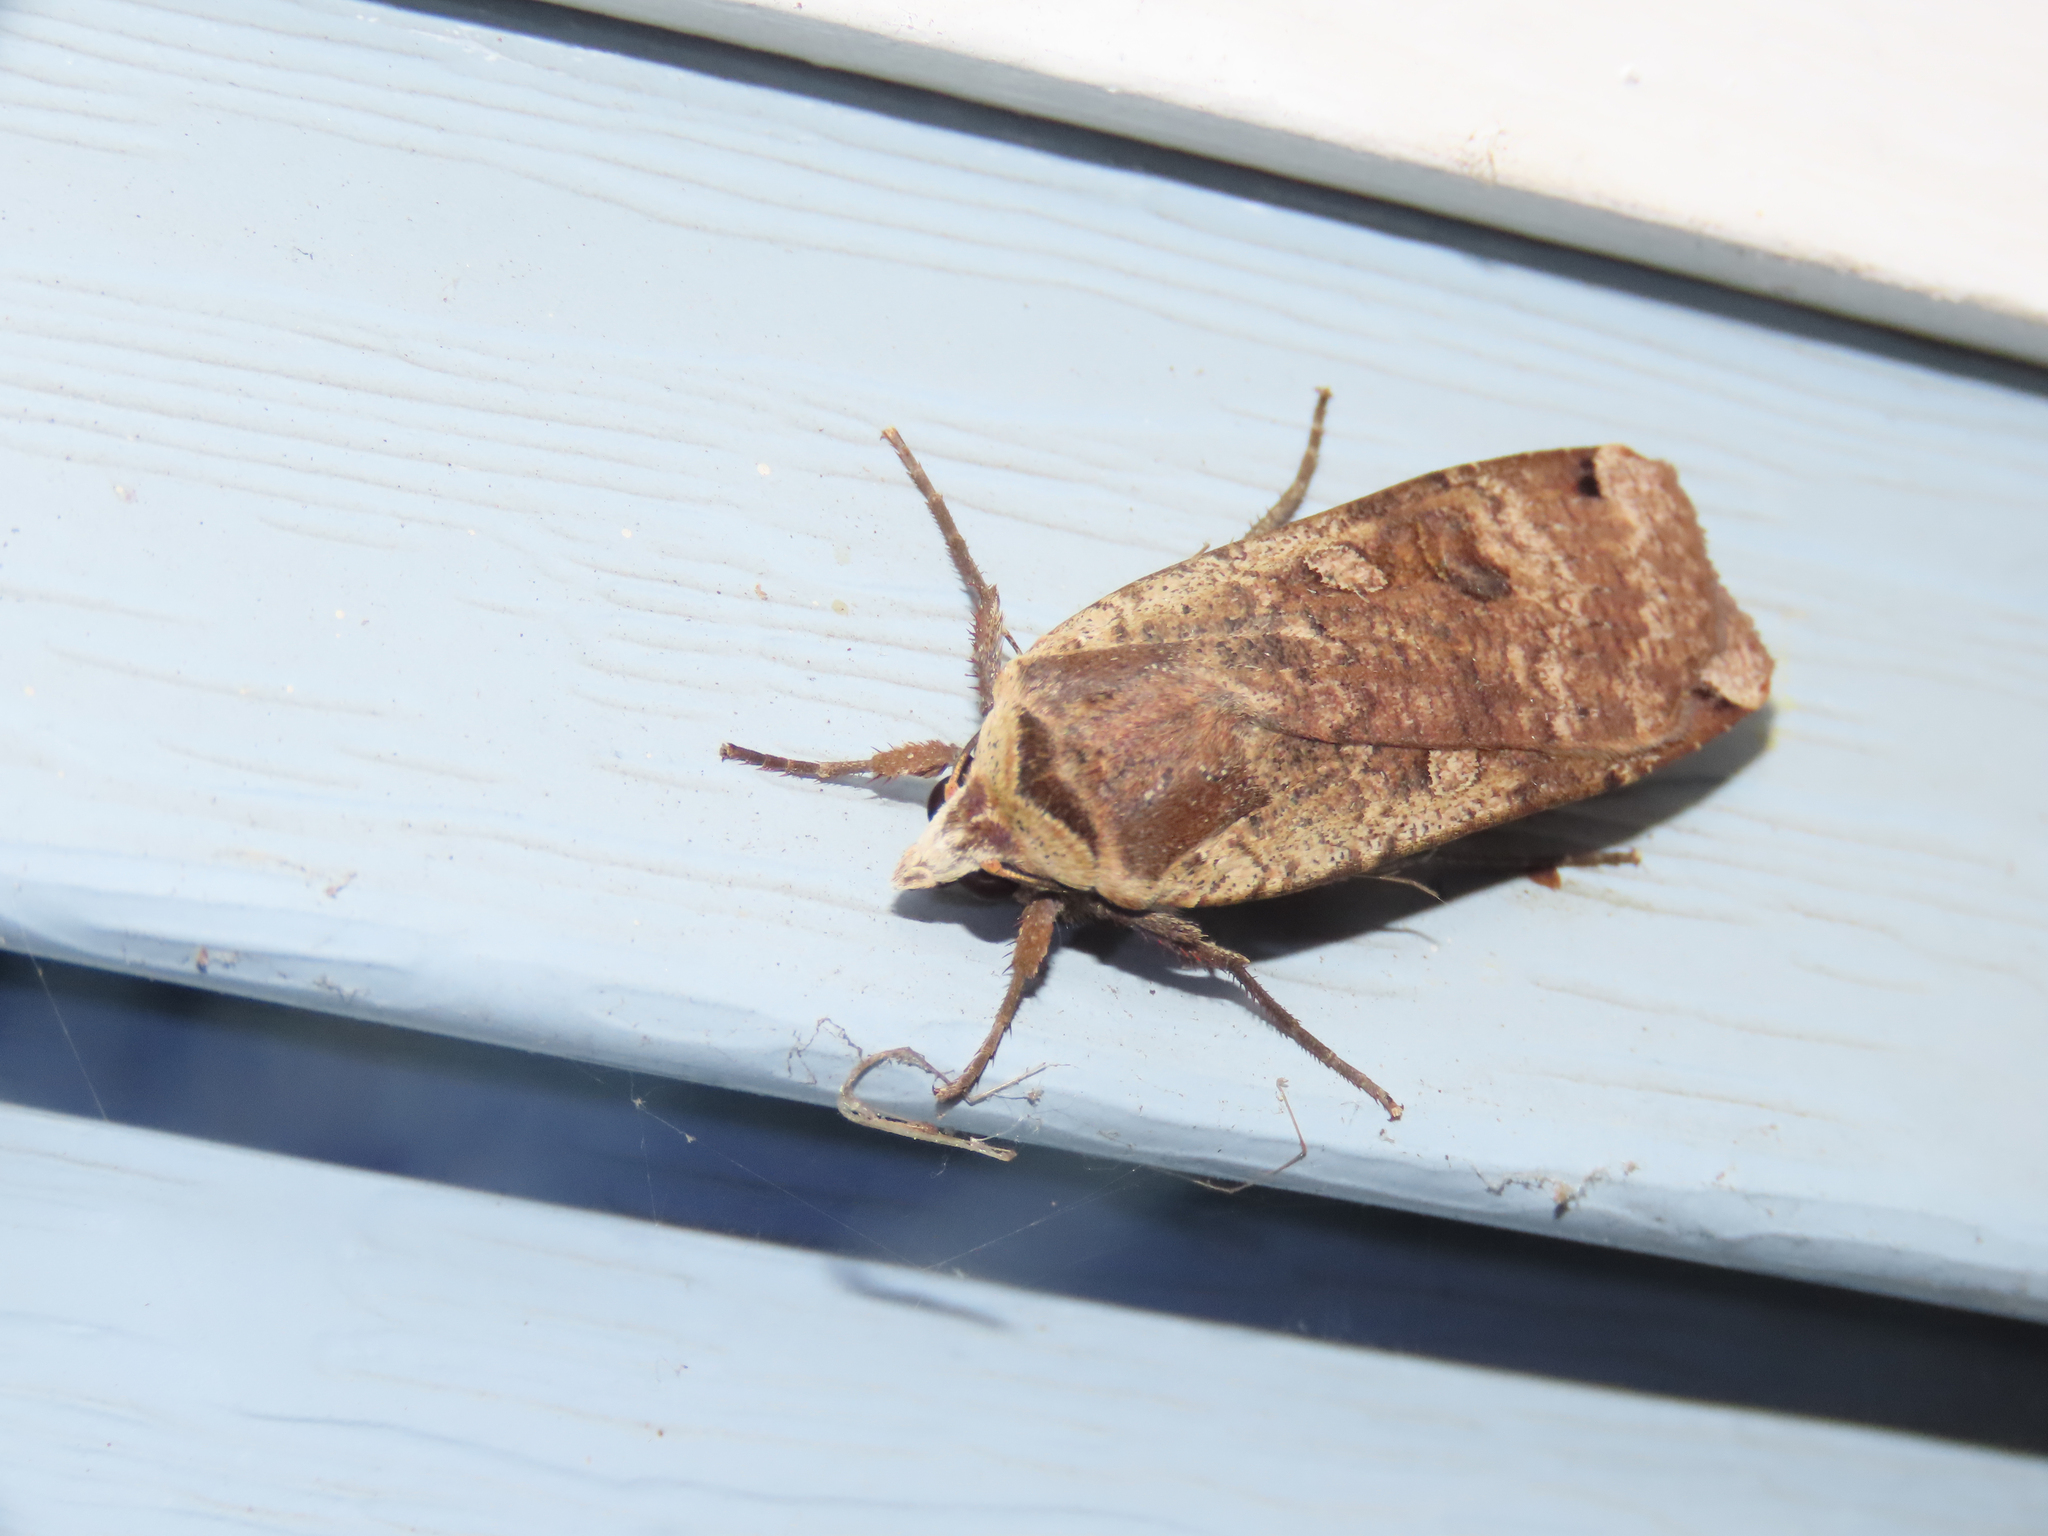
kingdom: Animalia
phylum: Arthropoda
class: Insecta
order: Lepidoptera
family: Noctuidae
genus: Noctua
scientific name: Noctua pronuba
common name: Large yellow underwing
